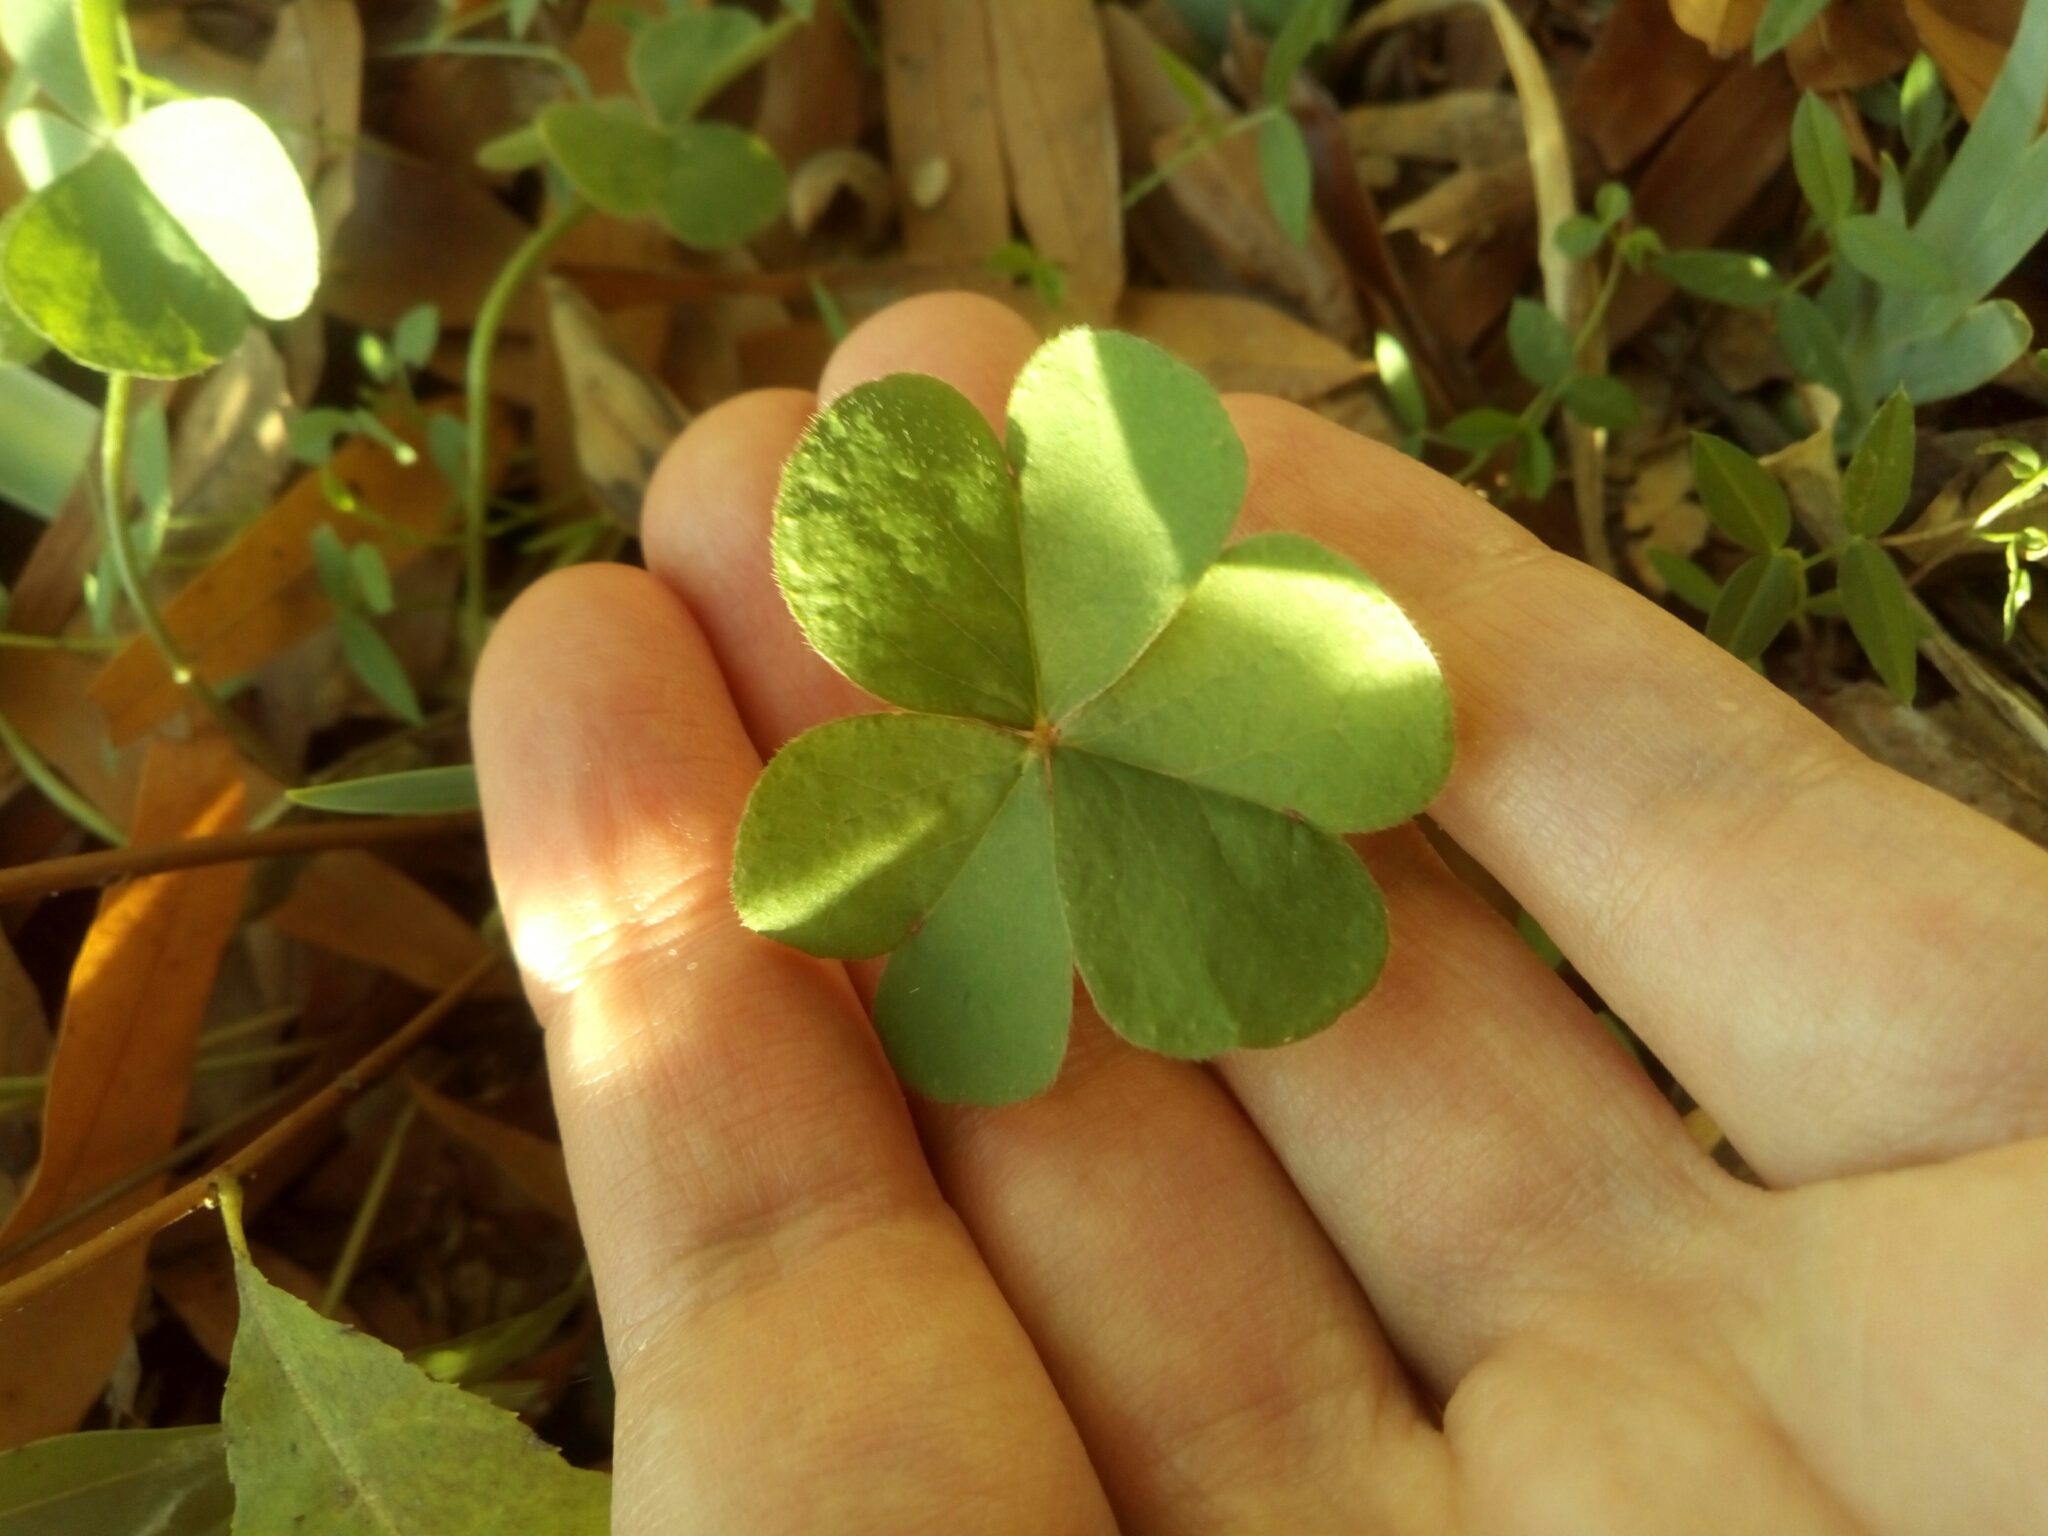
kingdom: Plantae
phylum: Tracheophyta
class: Magnoliopsida
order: Oxalidales
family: Oxalidaceae
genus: Oxalis
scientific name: Oxalis articulata
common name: Pink-sorrel
